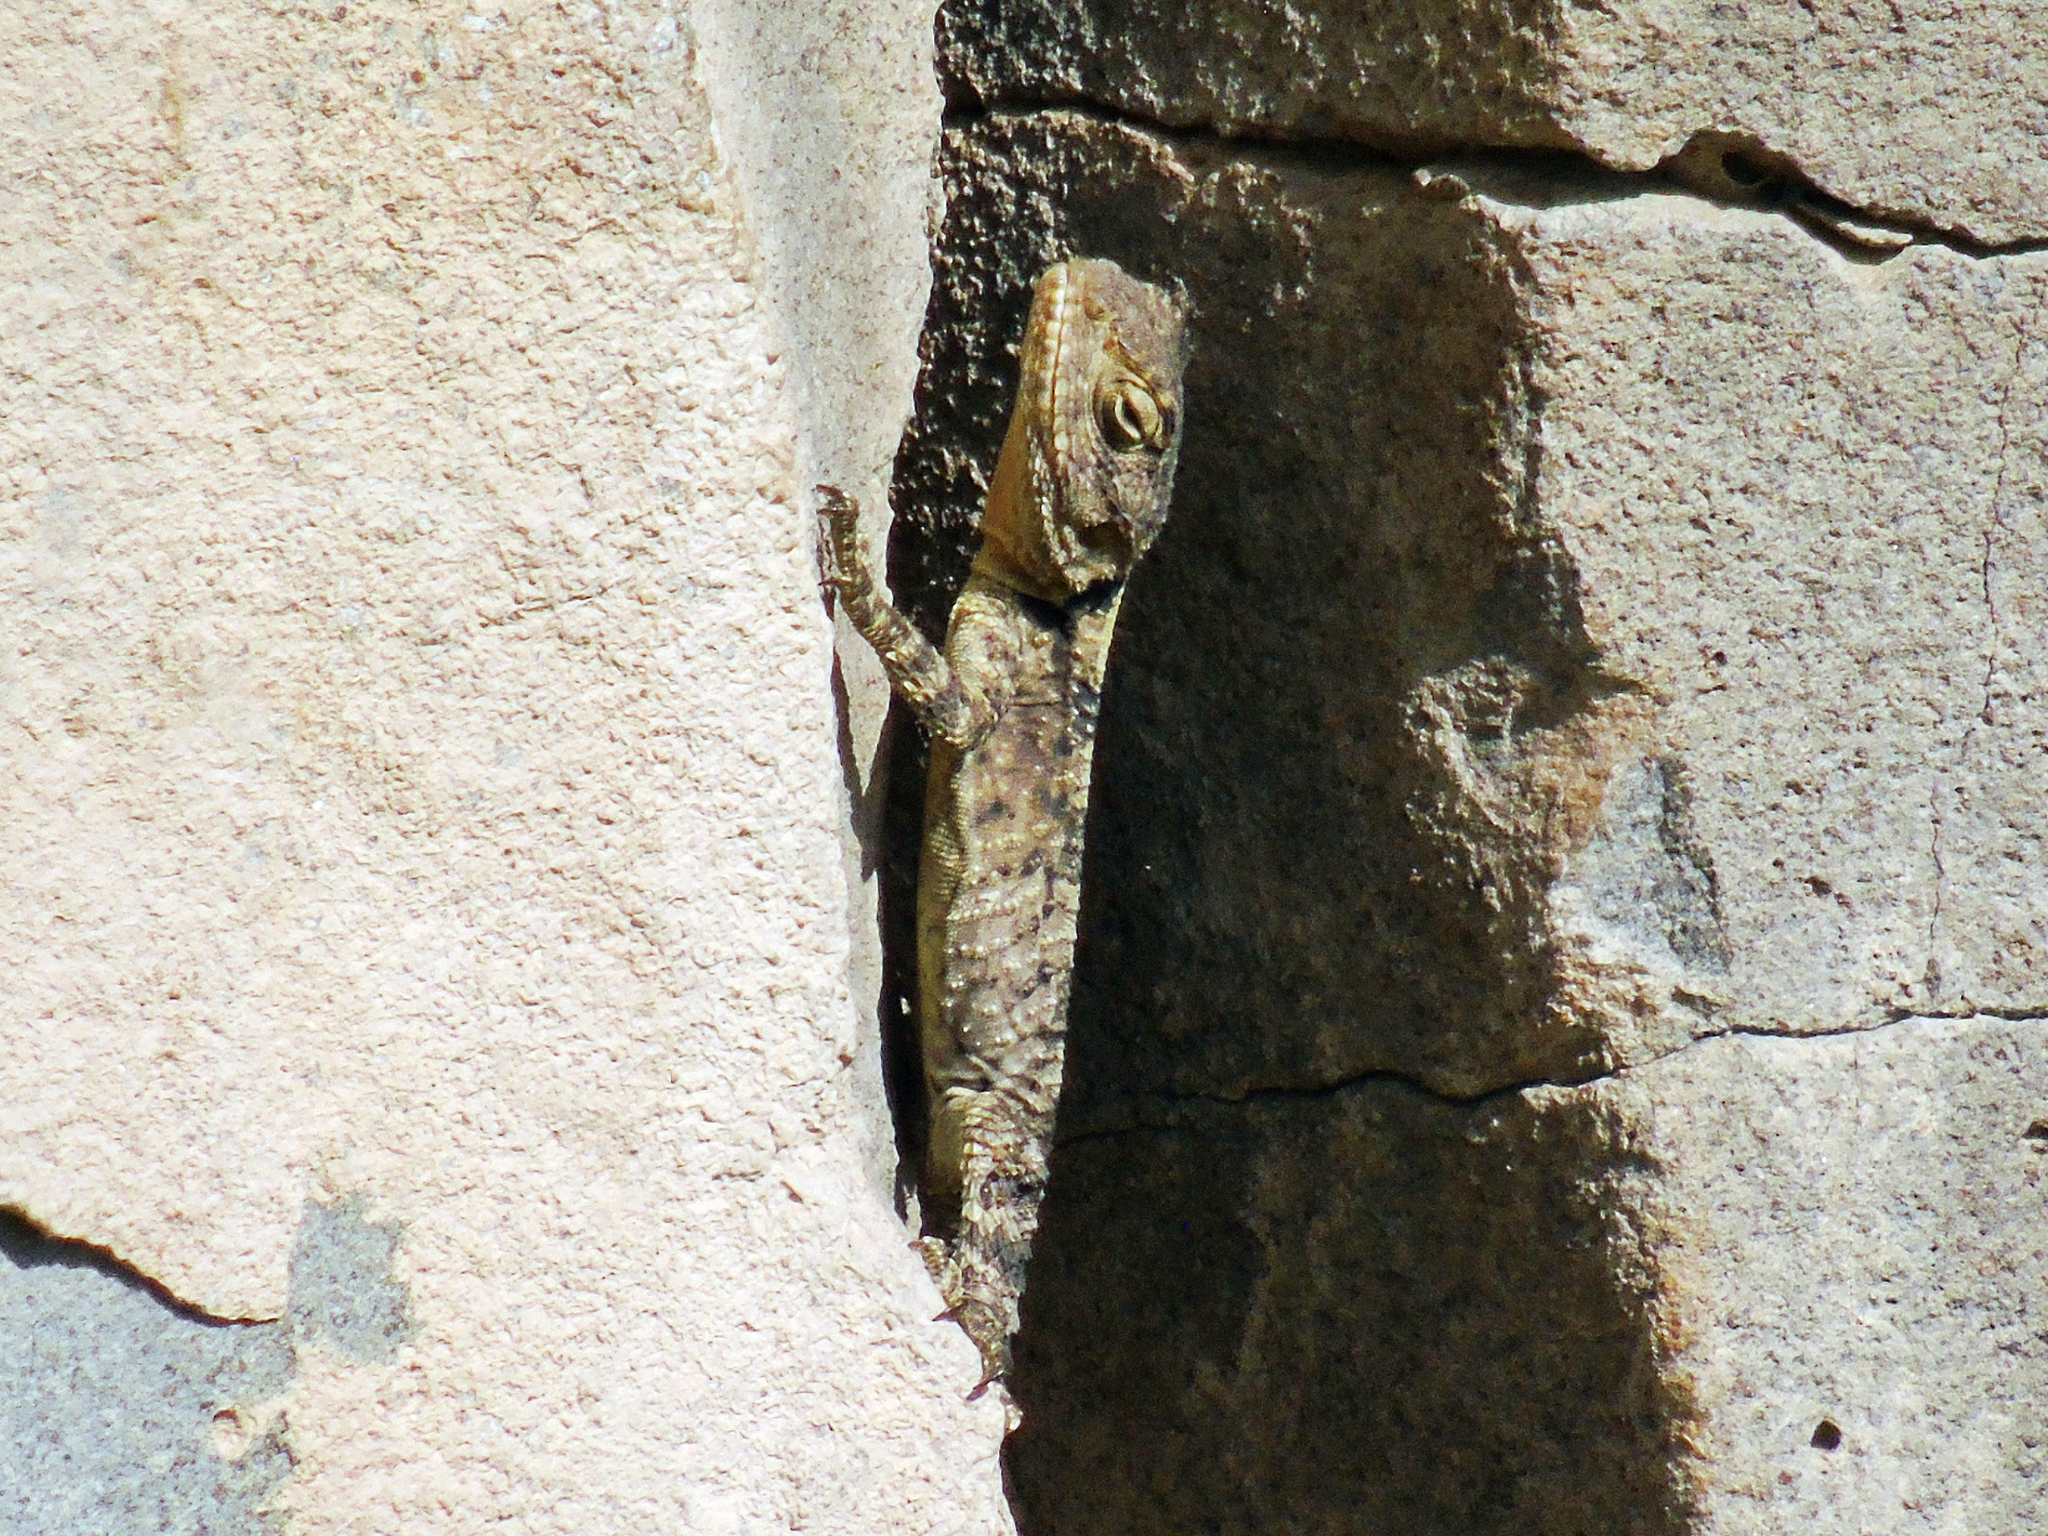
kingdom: Animalia
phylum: Chordata
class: Squamata
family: Agamidae
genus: Stellagama
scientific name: Stellagama stellio
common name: Starred agama
